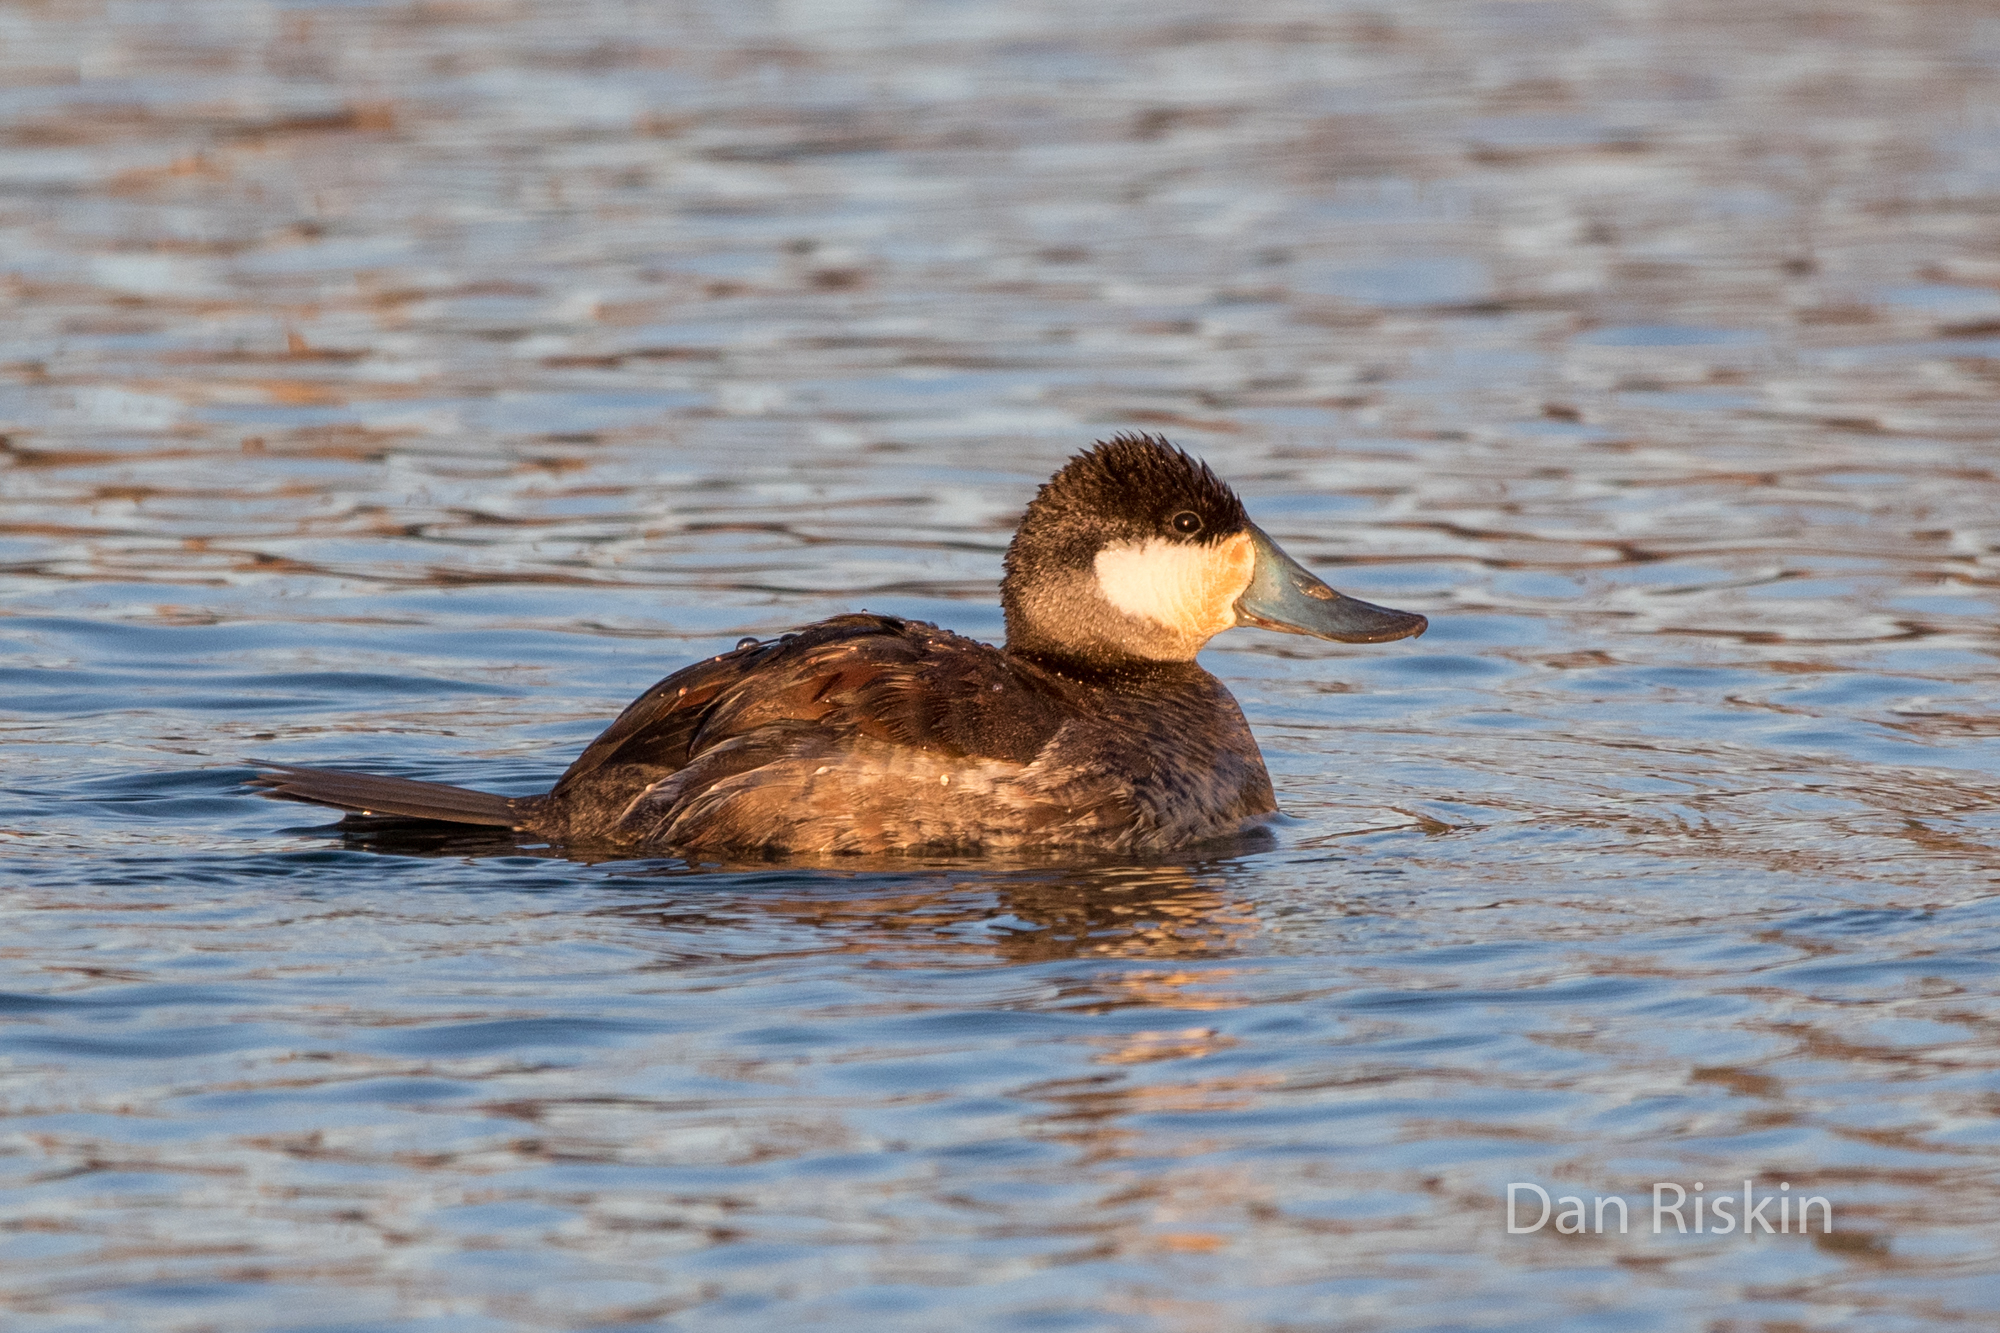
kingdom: Animalia
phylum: Chordata
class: Aves
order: Anseriformes
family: Anatidae
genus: Oxyura
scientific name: Oxyura jamaicensis
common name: Ruddy duck
